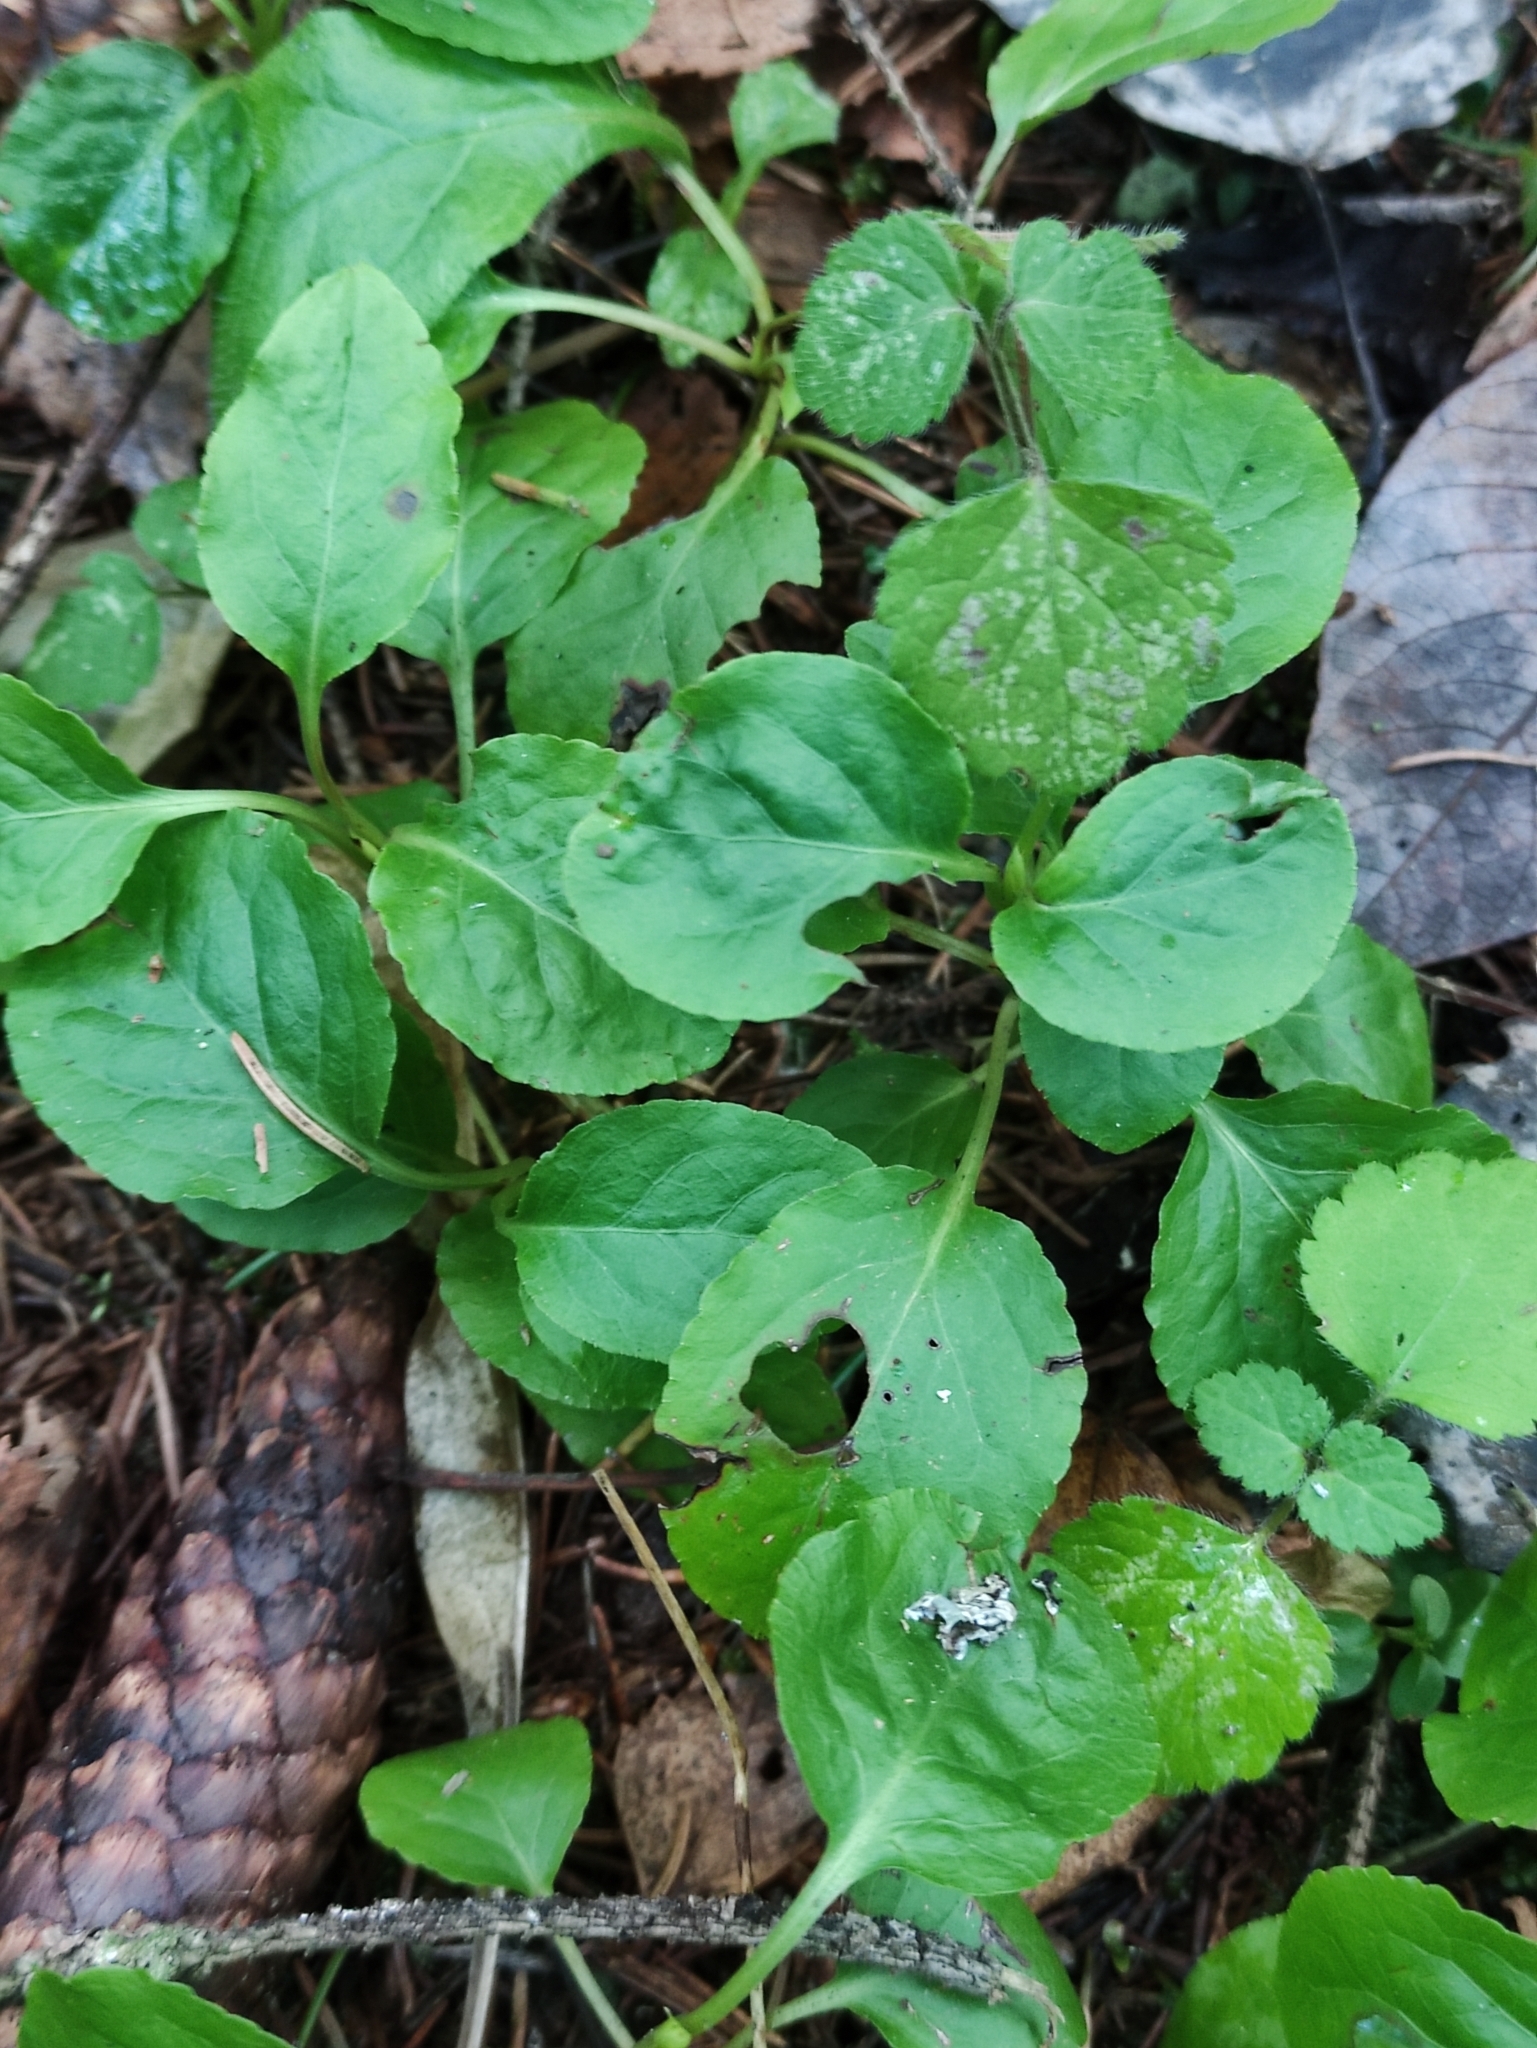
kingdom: Plantae
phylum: Tracheophyta
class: Magnoliopsida
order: Ericales
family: Ericaceae
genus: Orthilia
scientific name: Orthilia secunda
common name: One-sided orthilia
